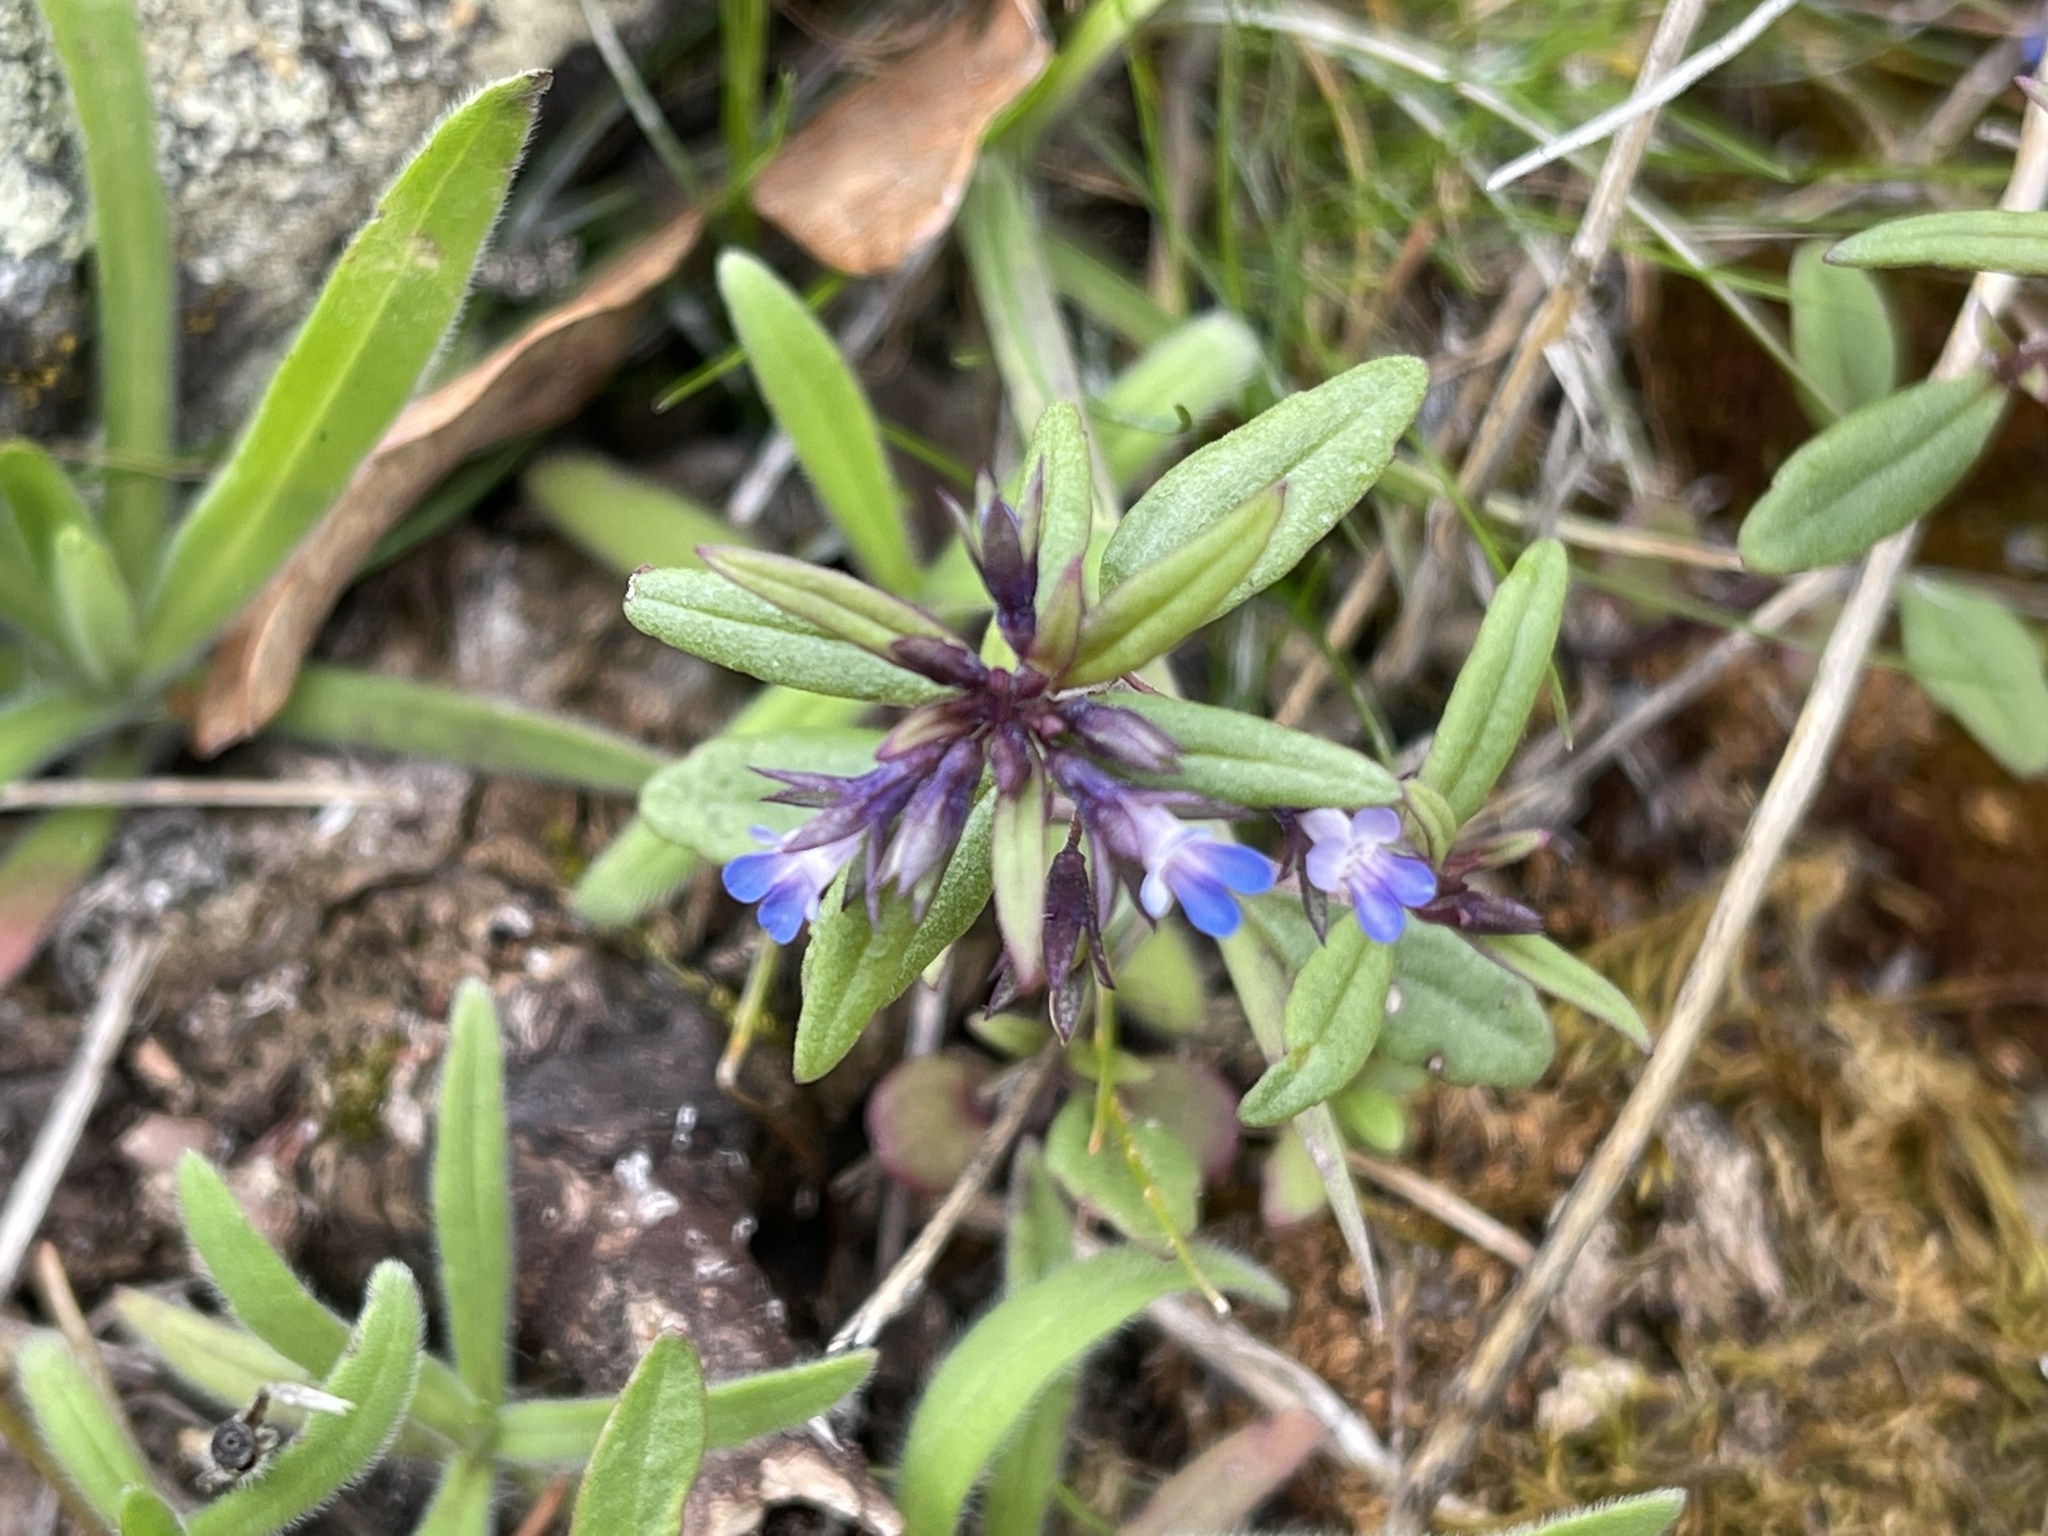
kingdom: Plantae
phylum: Tracheophyta
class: Magnoliopsida
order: Lamiales
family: Plantaginaceae
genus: Collinsia
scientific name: Collinsia parviflora
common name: Blue-lips
